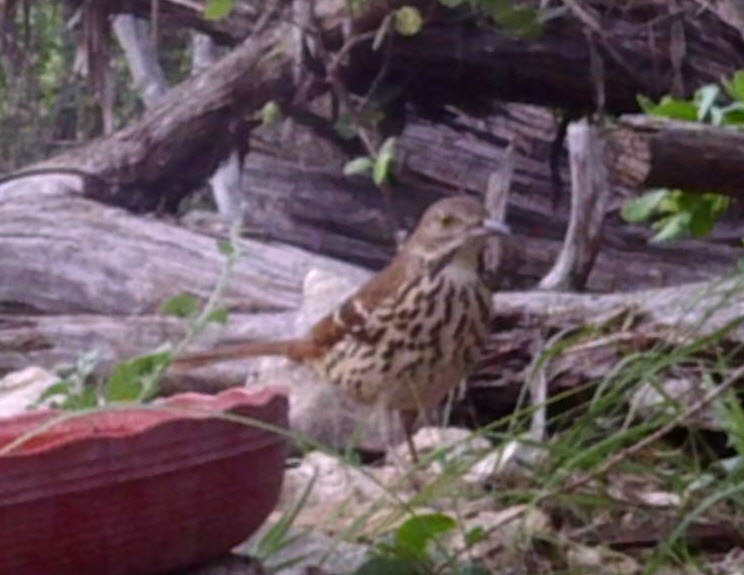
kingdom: Animalia
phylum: Chordata
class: Aves
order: Passeriformes
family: Mimidae
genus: Toxostoma
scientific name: Toxostoma rufum
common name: Brown thrasher
